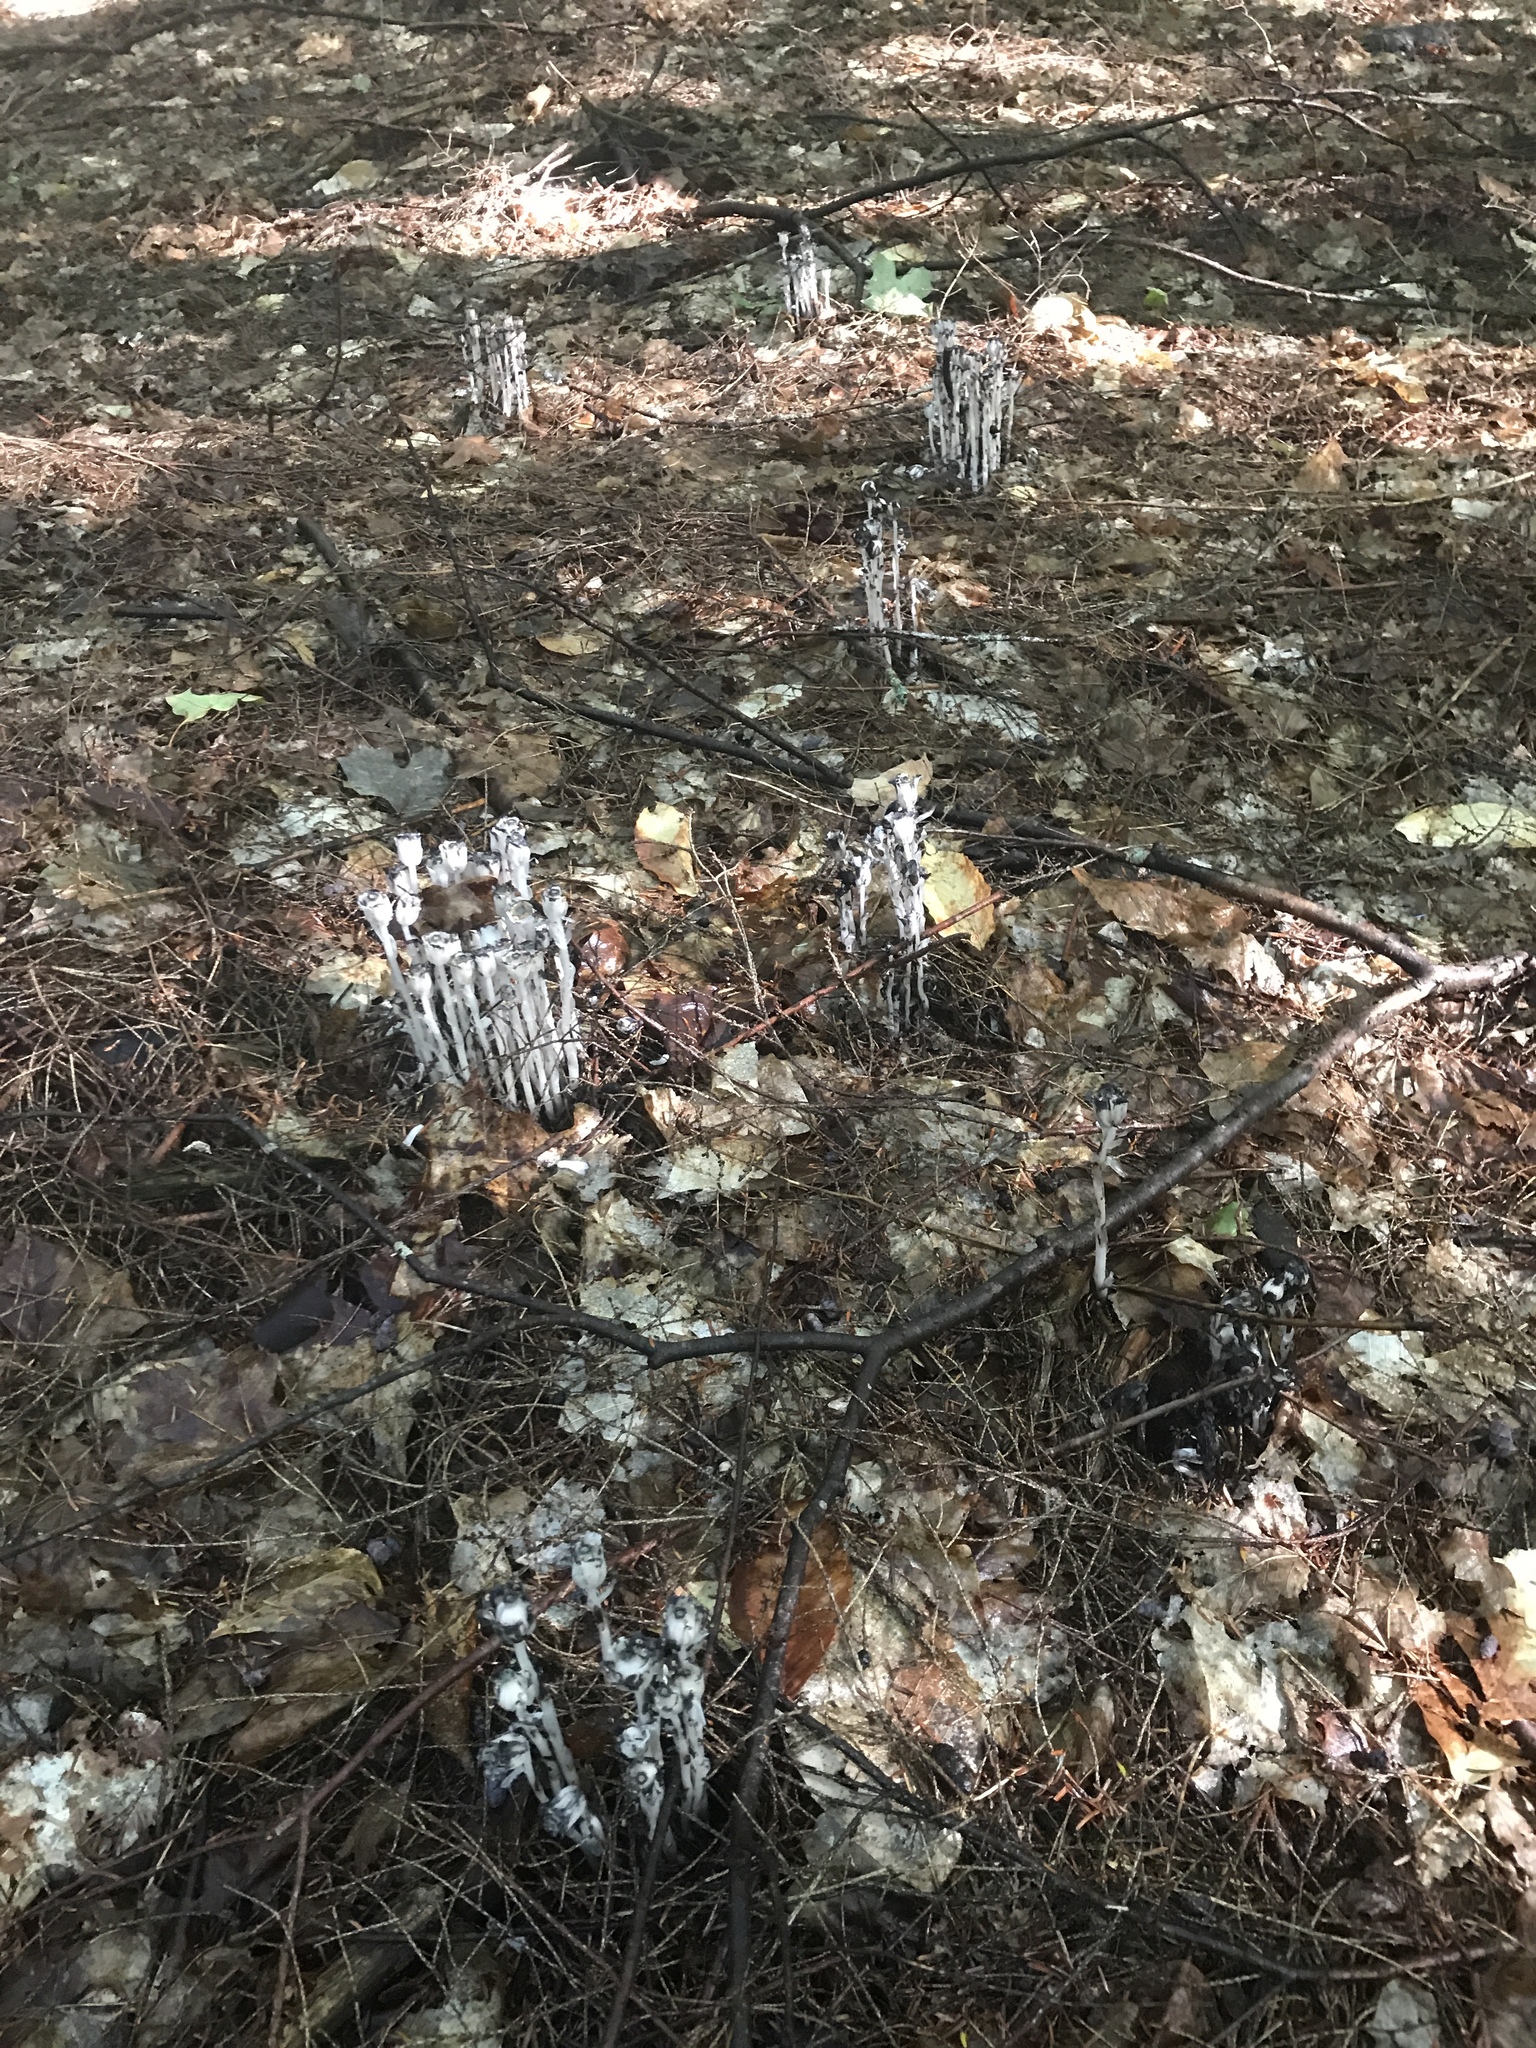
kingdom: Plantae
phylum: Tracheophyta
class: Magnoliopsida
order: Ericales
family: Ericaceae
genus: Monotropa
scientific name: Monotropa uniflora
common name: Convulsion root
